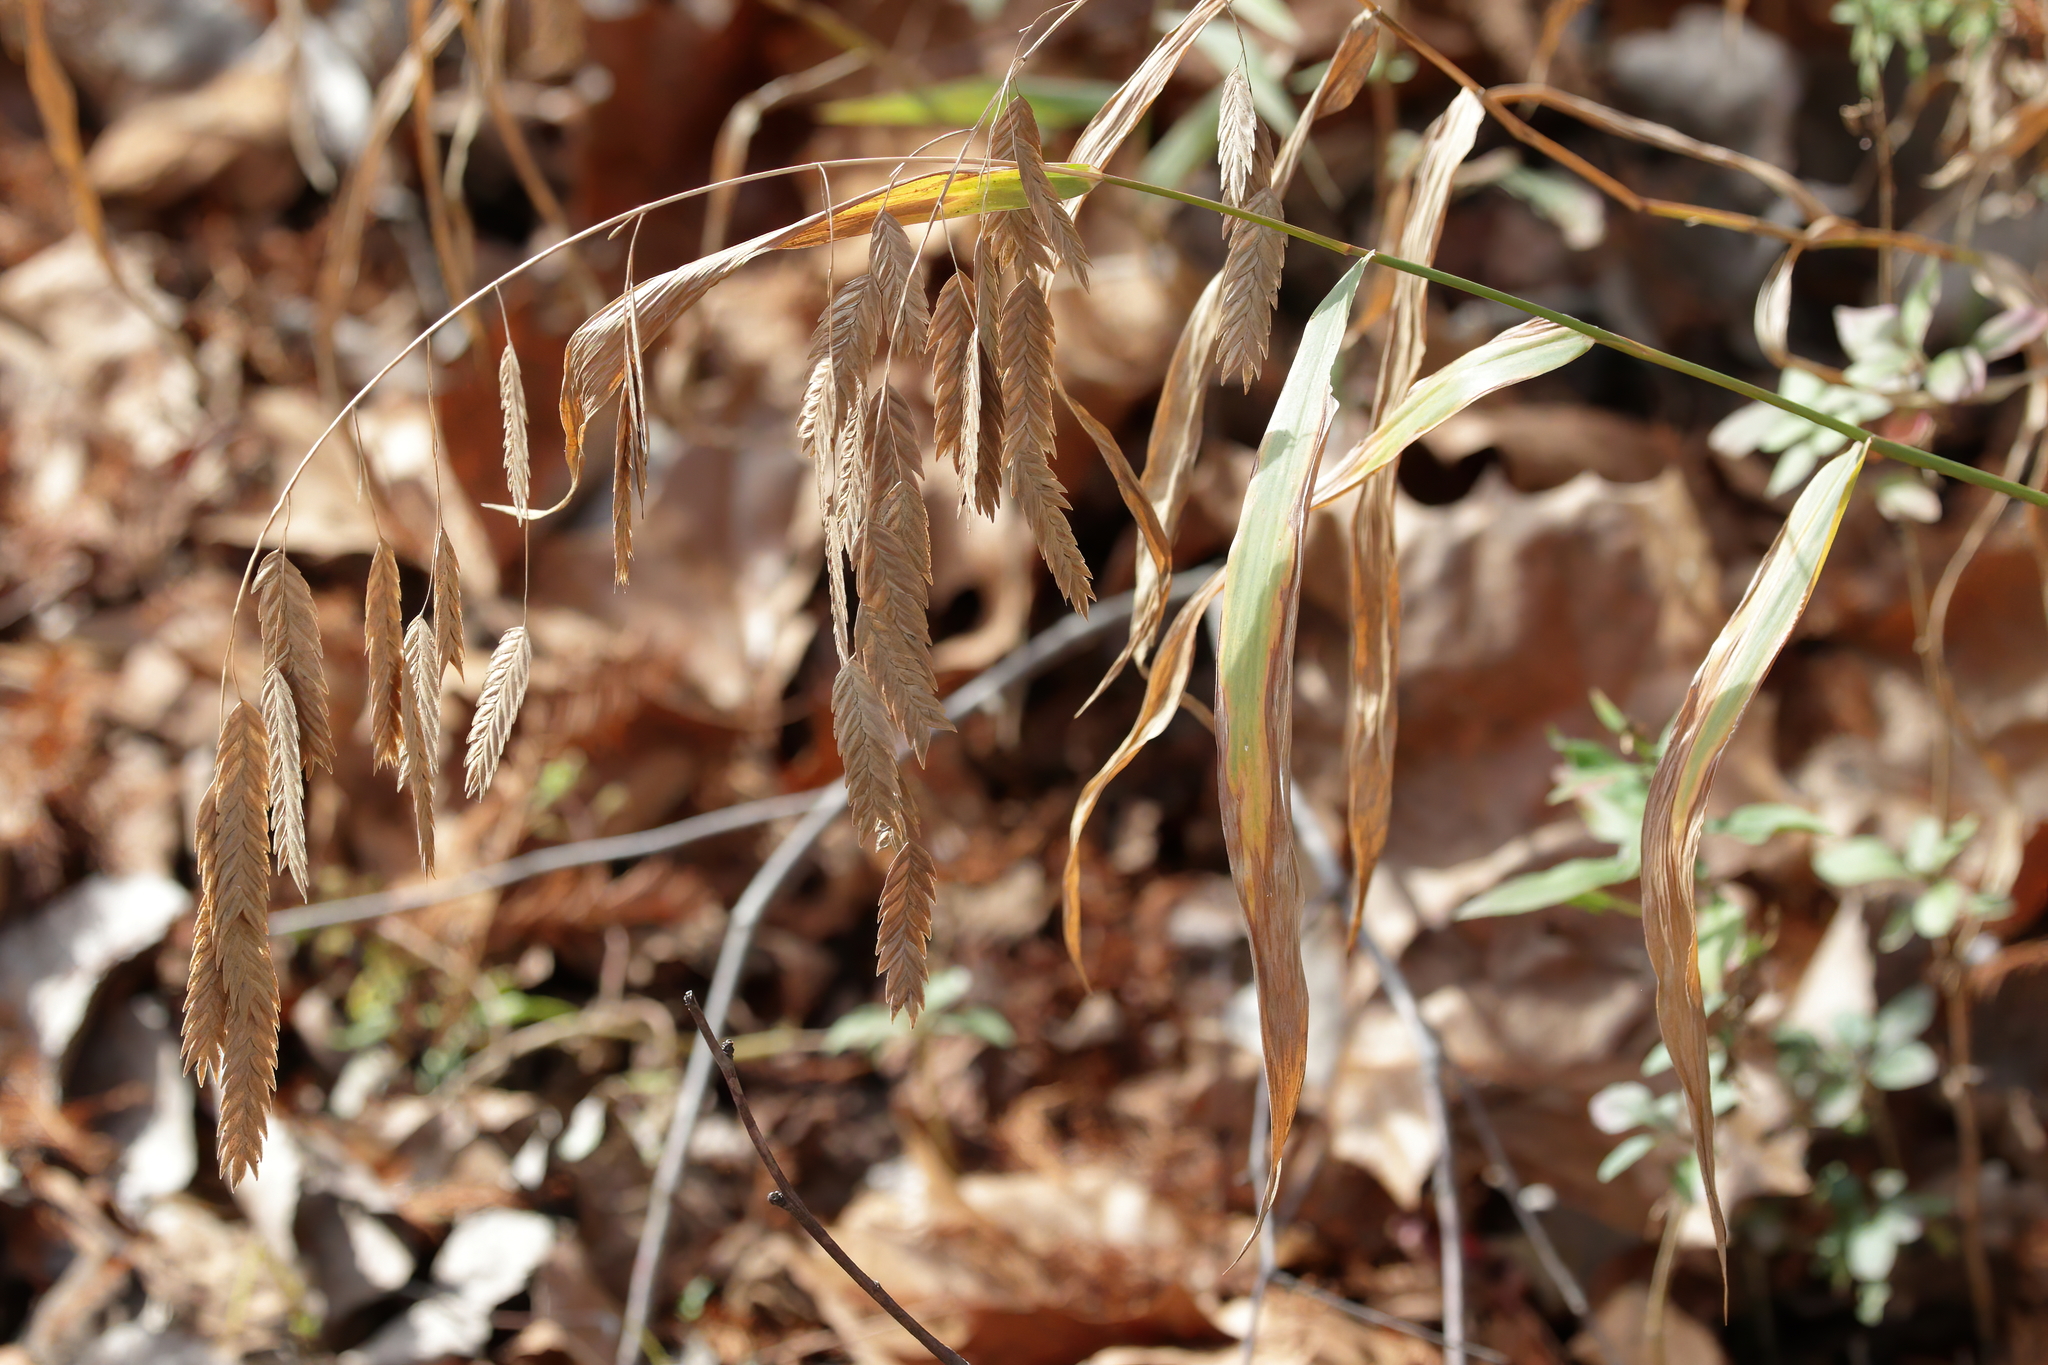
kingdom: Plantae
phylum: Tracheophyta
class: Liliopsida
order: Poales
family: Poaceae
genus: Chasmanthium
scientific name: Chasmanthium latifolium
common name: Broad-leaved chasmanthium
